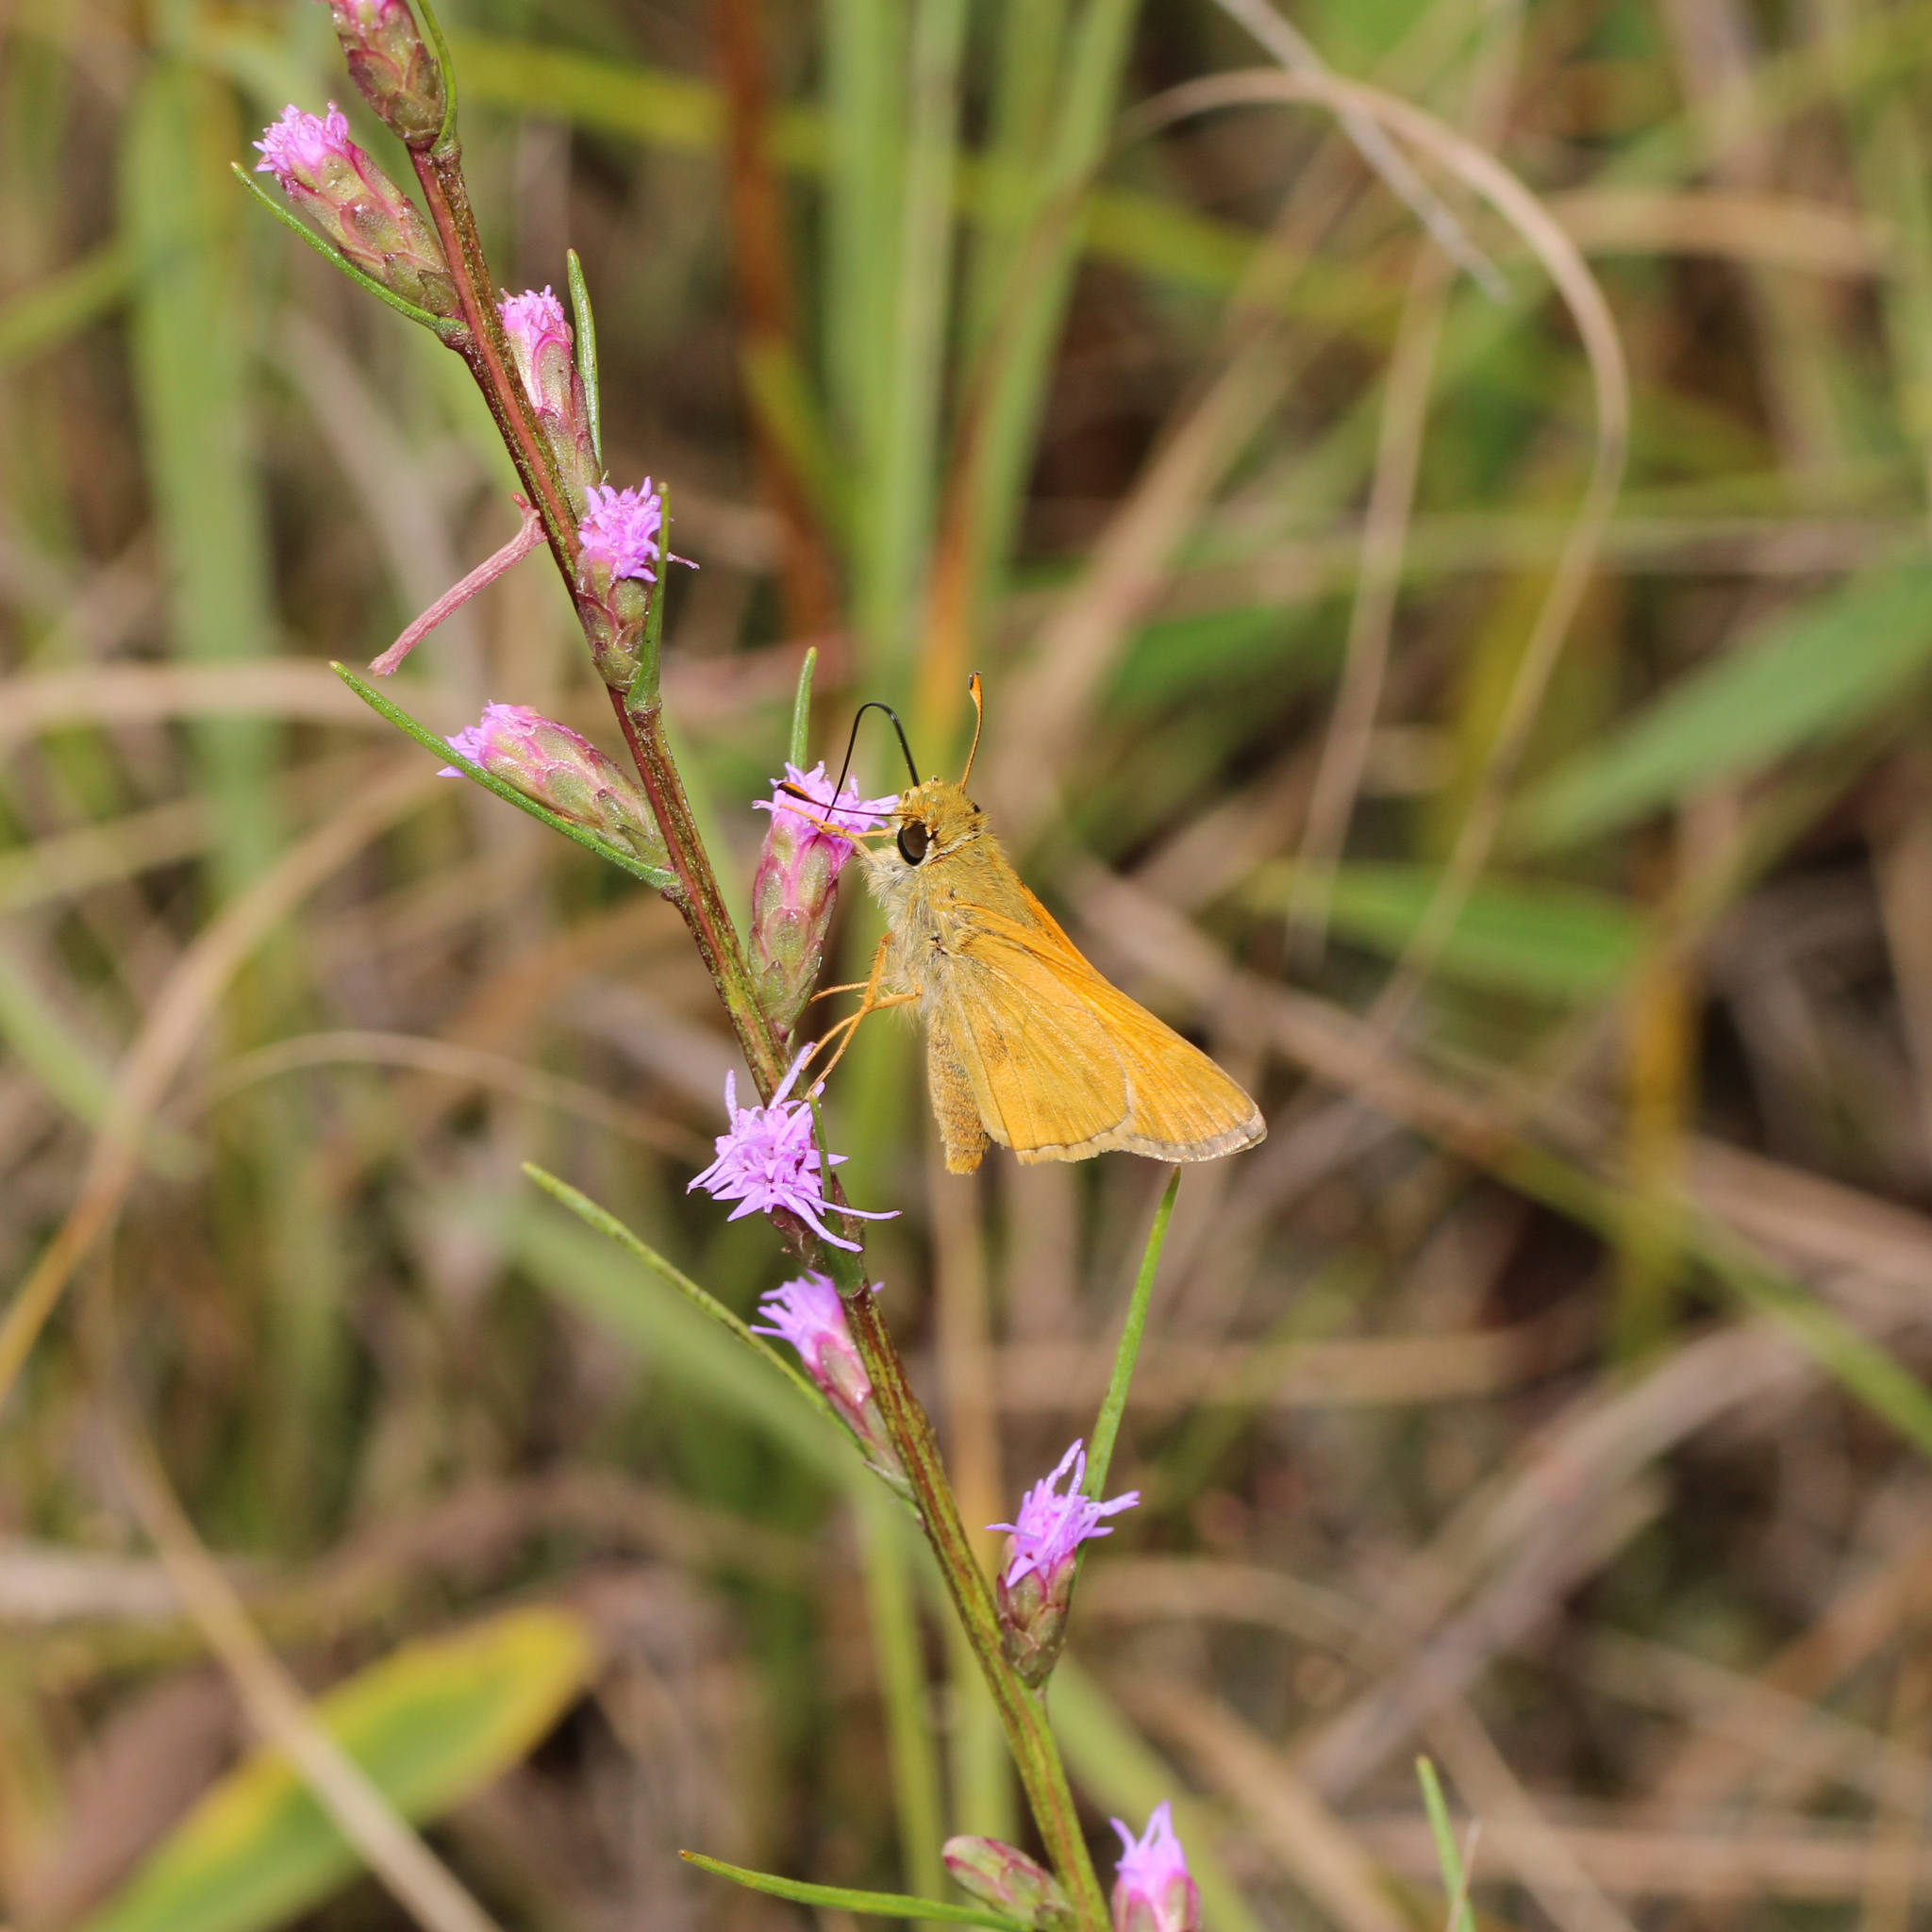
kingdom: Animalia
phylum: Arthropoda
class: Insecta
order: Lepidoptera
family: Hesperiidae
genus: Atalopedes
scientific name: Atalopedes
